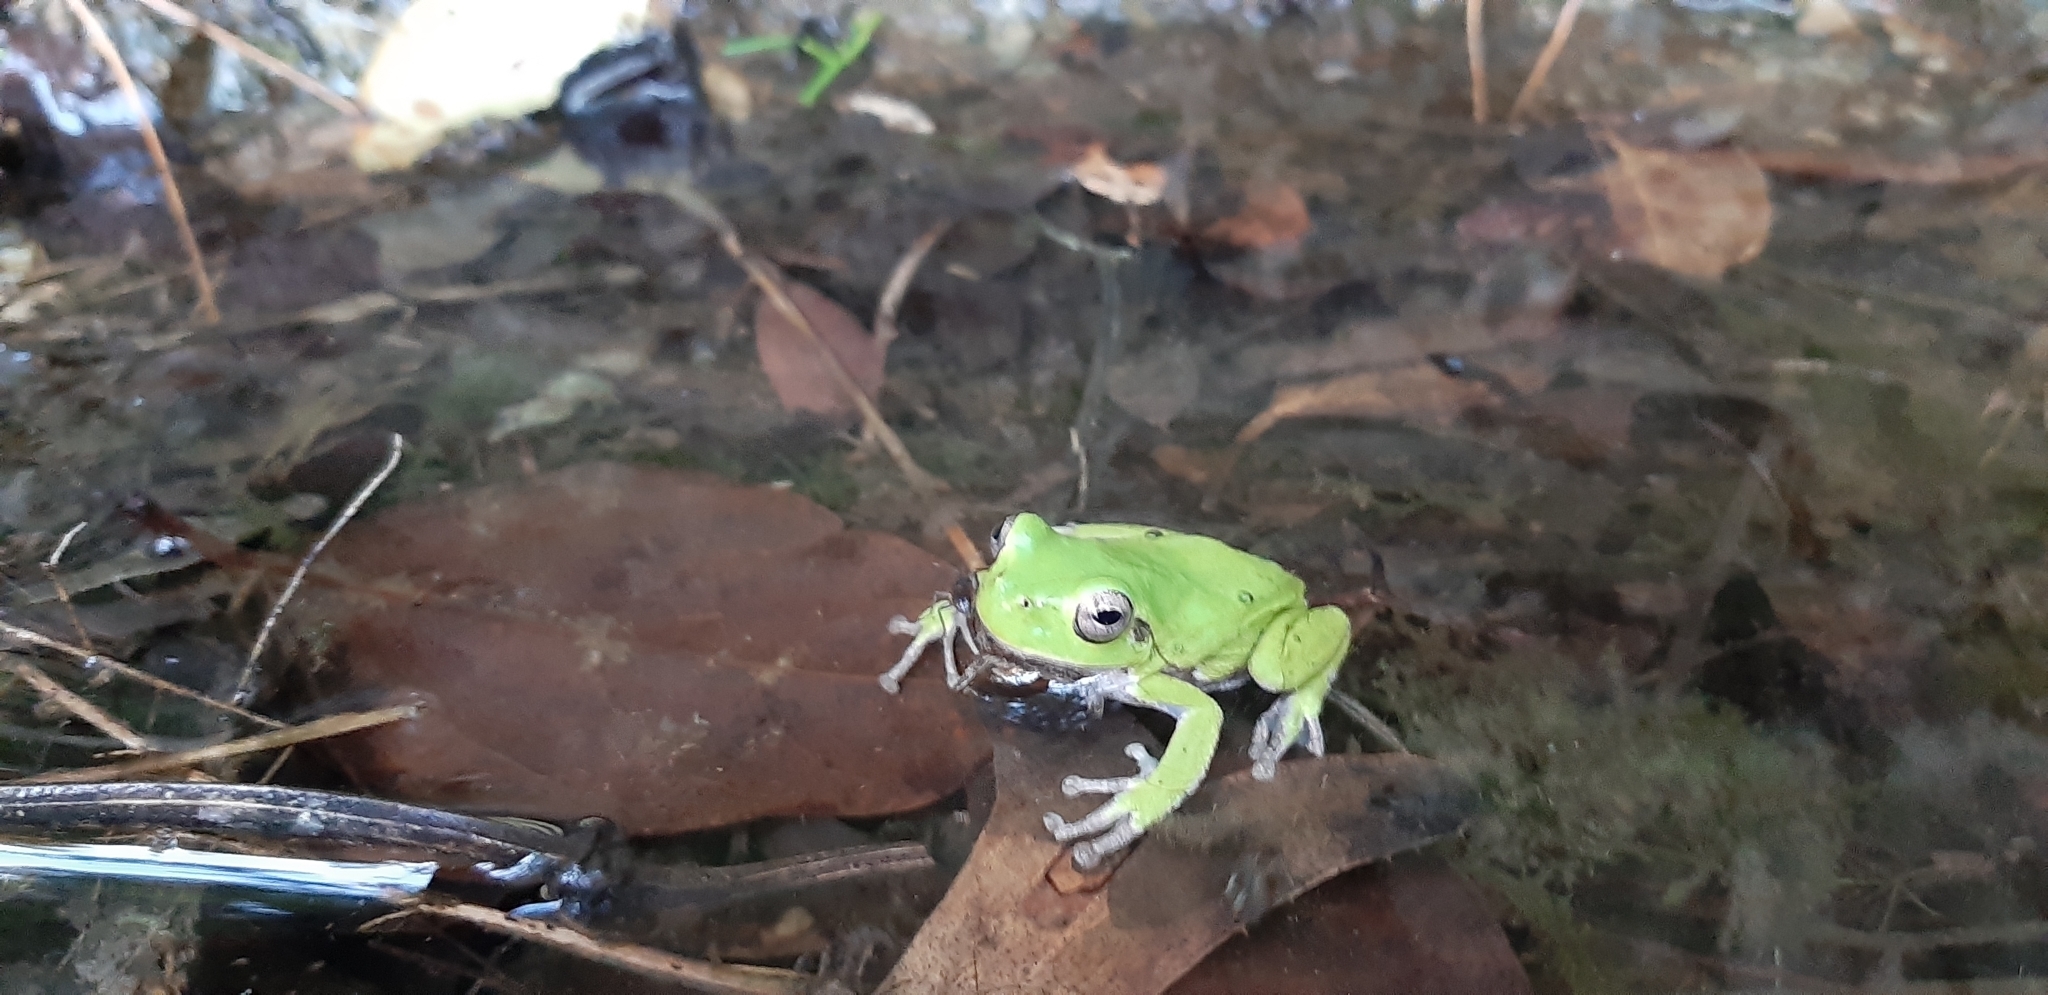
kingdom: Animalia
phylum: Chordata
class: Amphibia
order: Anura
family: Hylidae
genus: Hyla
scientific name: Hyla sarda
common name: Sardinian tree frog
